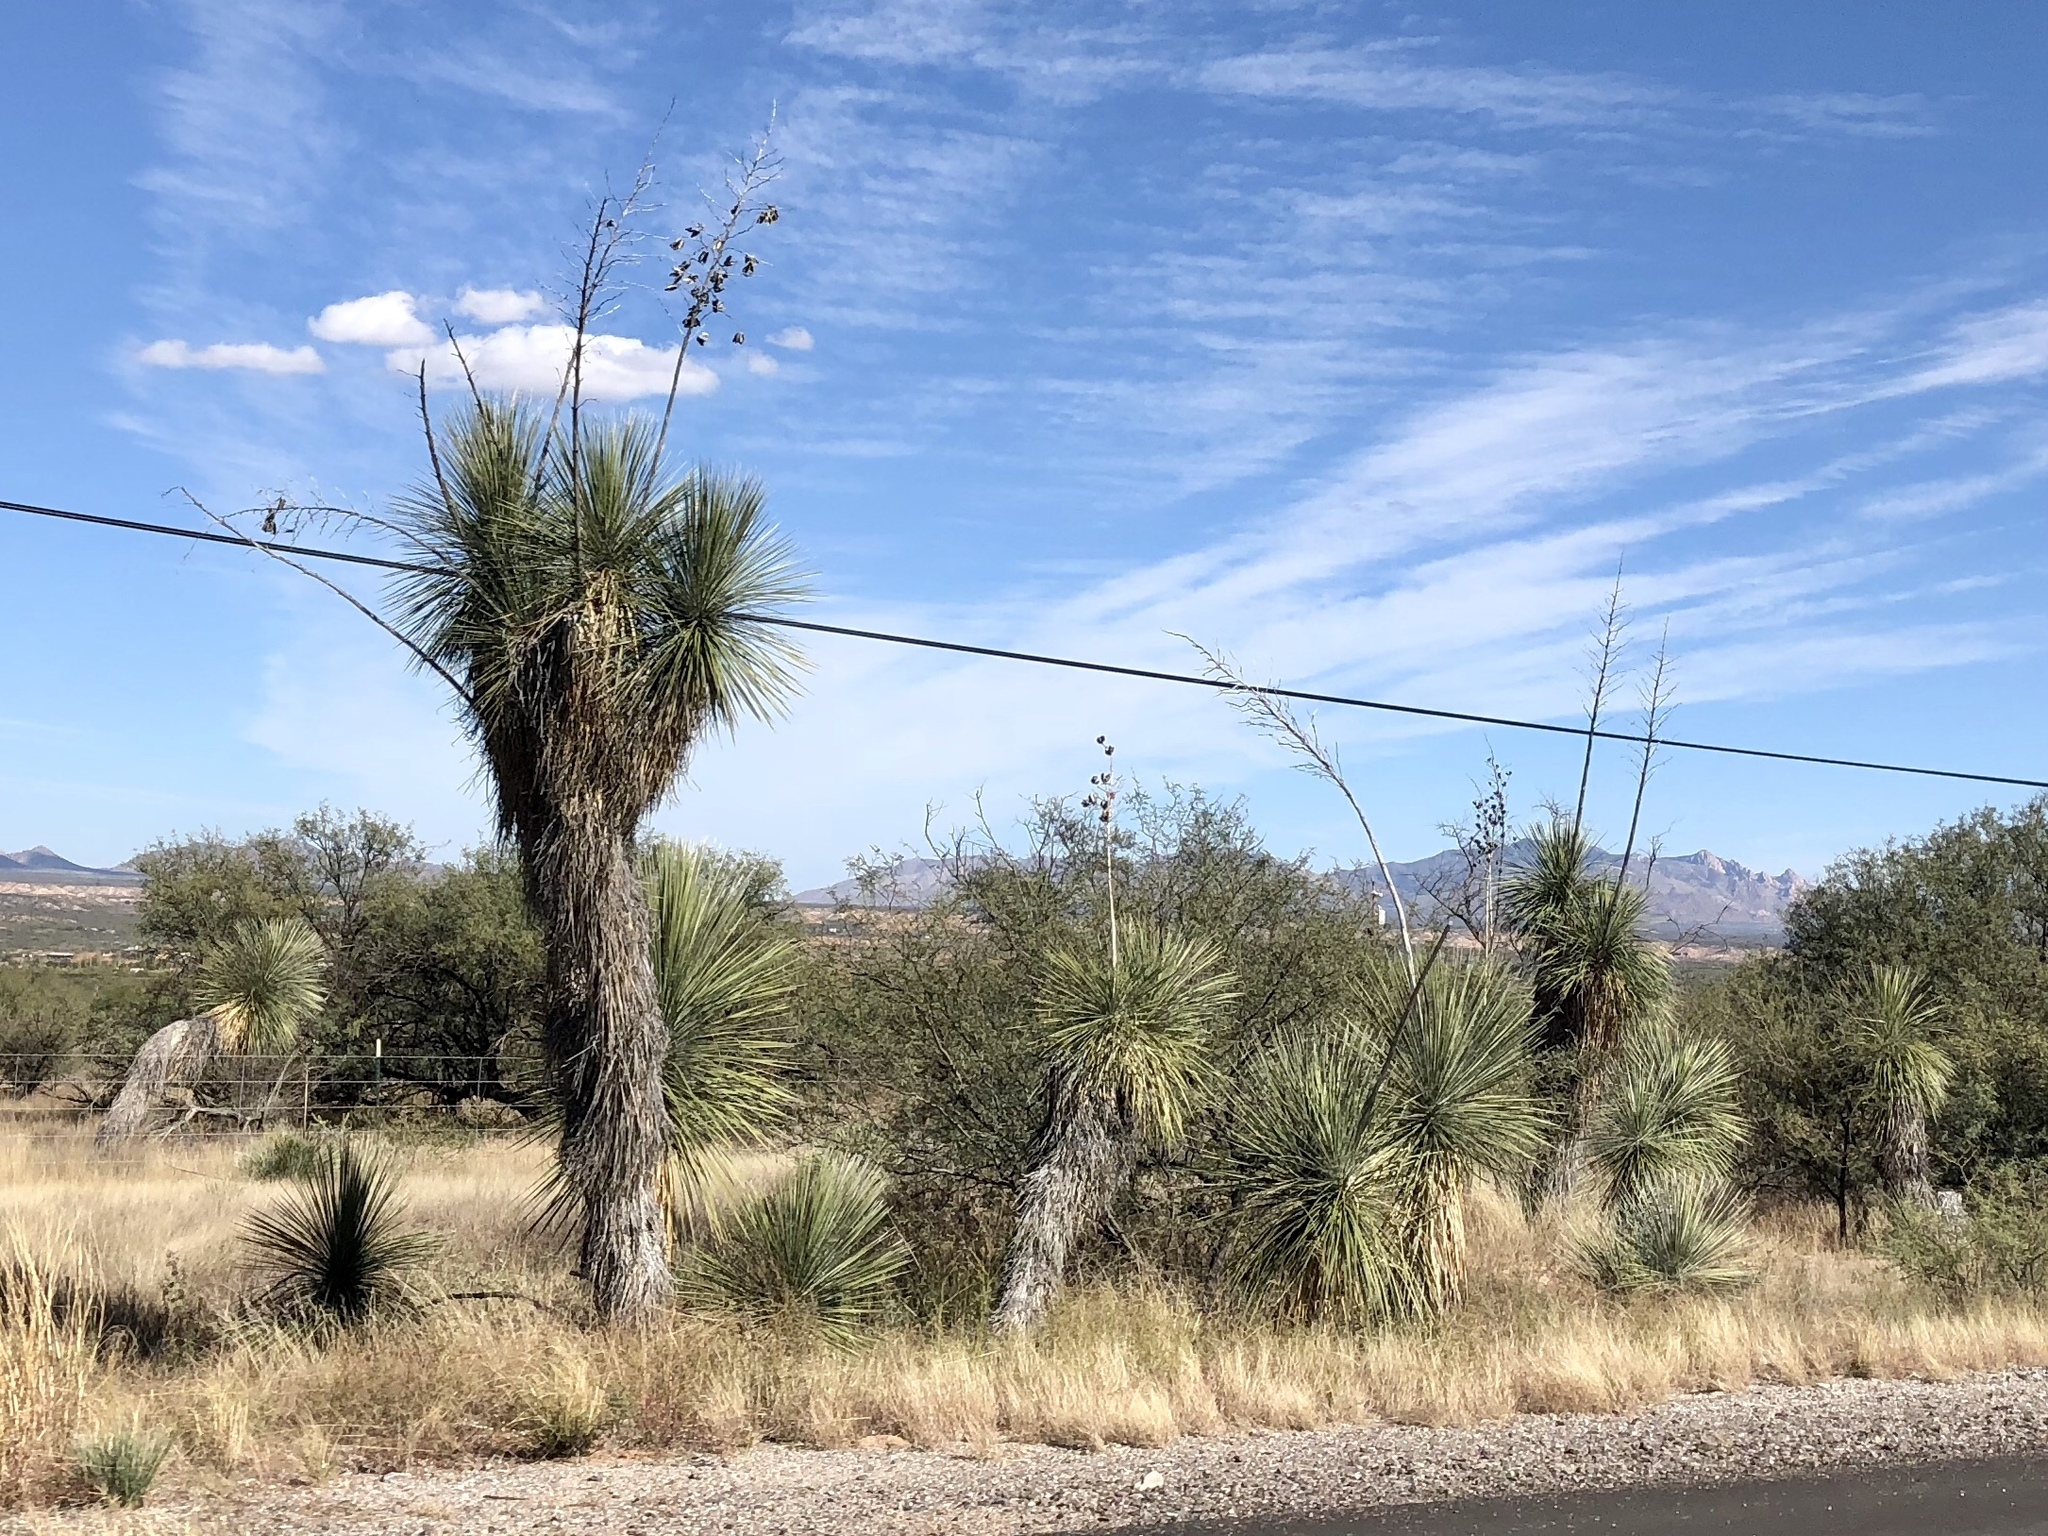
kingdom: Plantae
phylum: Tracheophyta
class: Liliopsida
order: Asparagales
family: Asparagaceae
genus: Yucca
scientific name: Yucca elata
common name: Palmella
